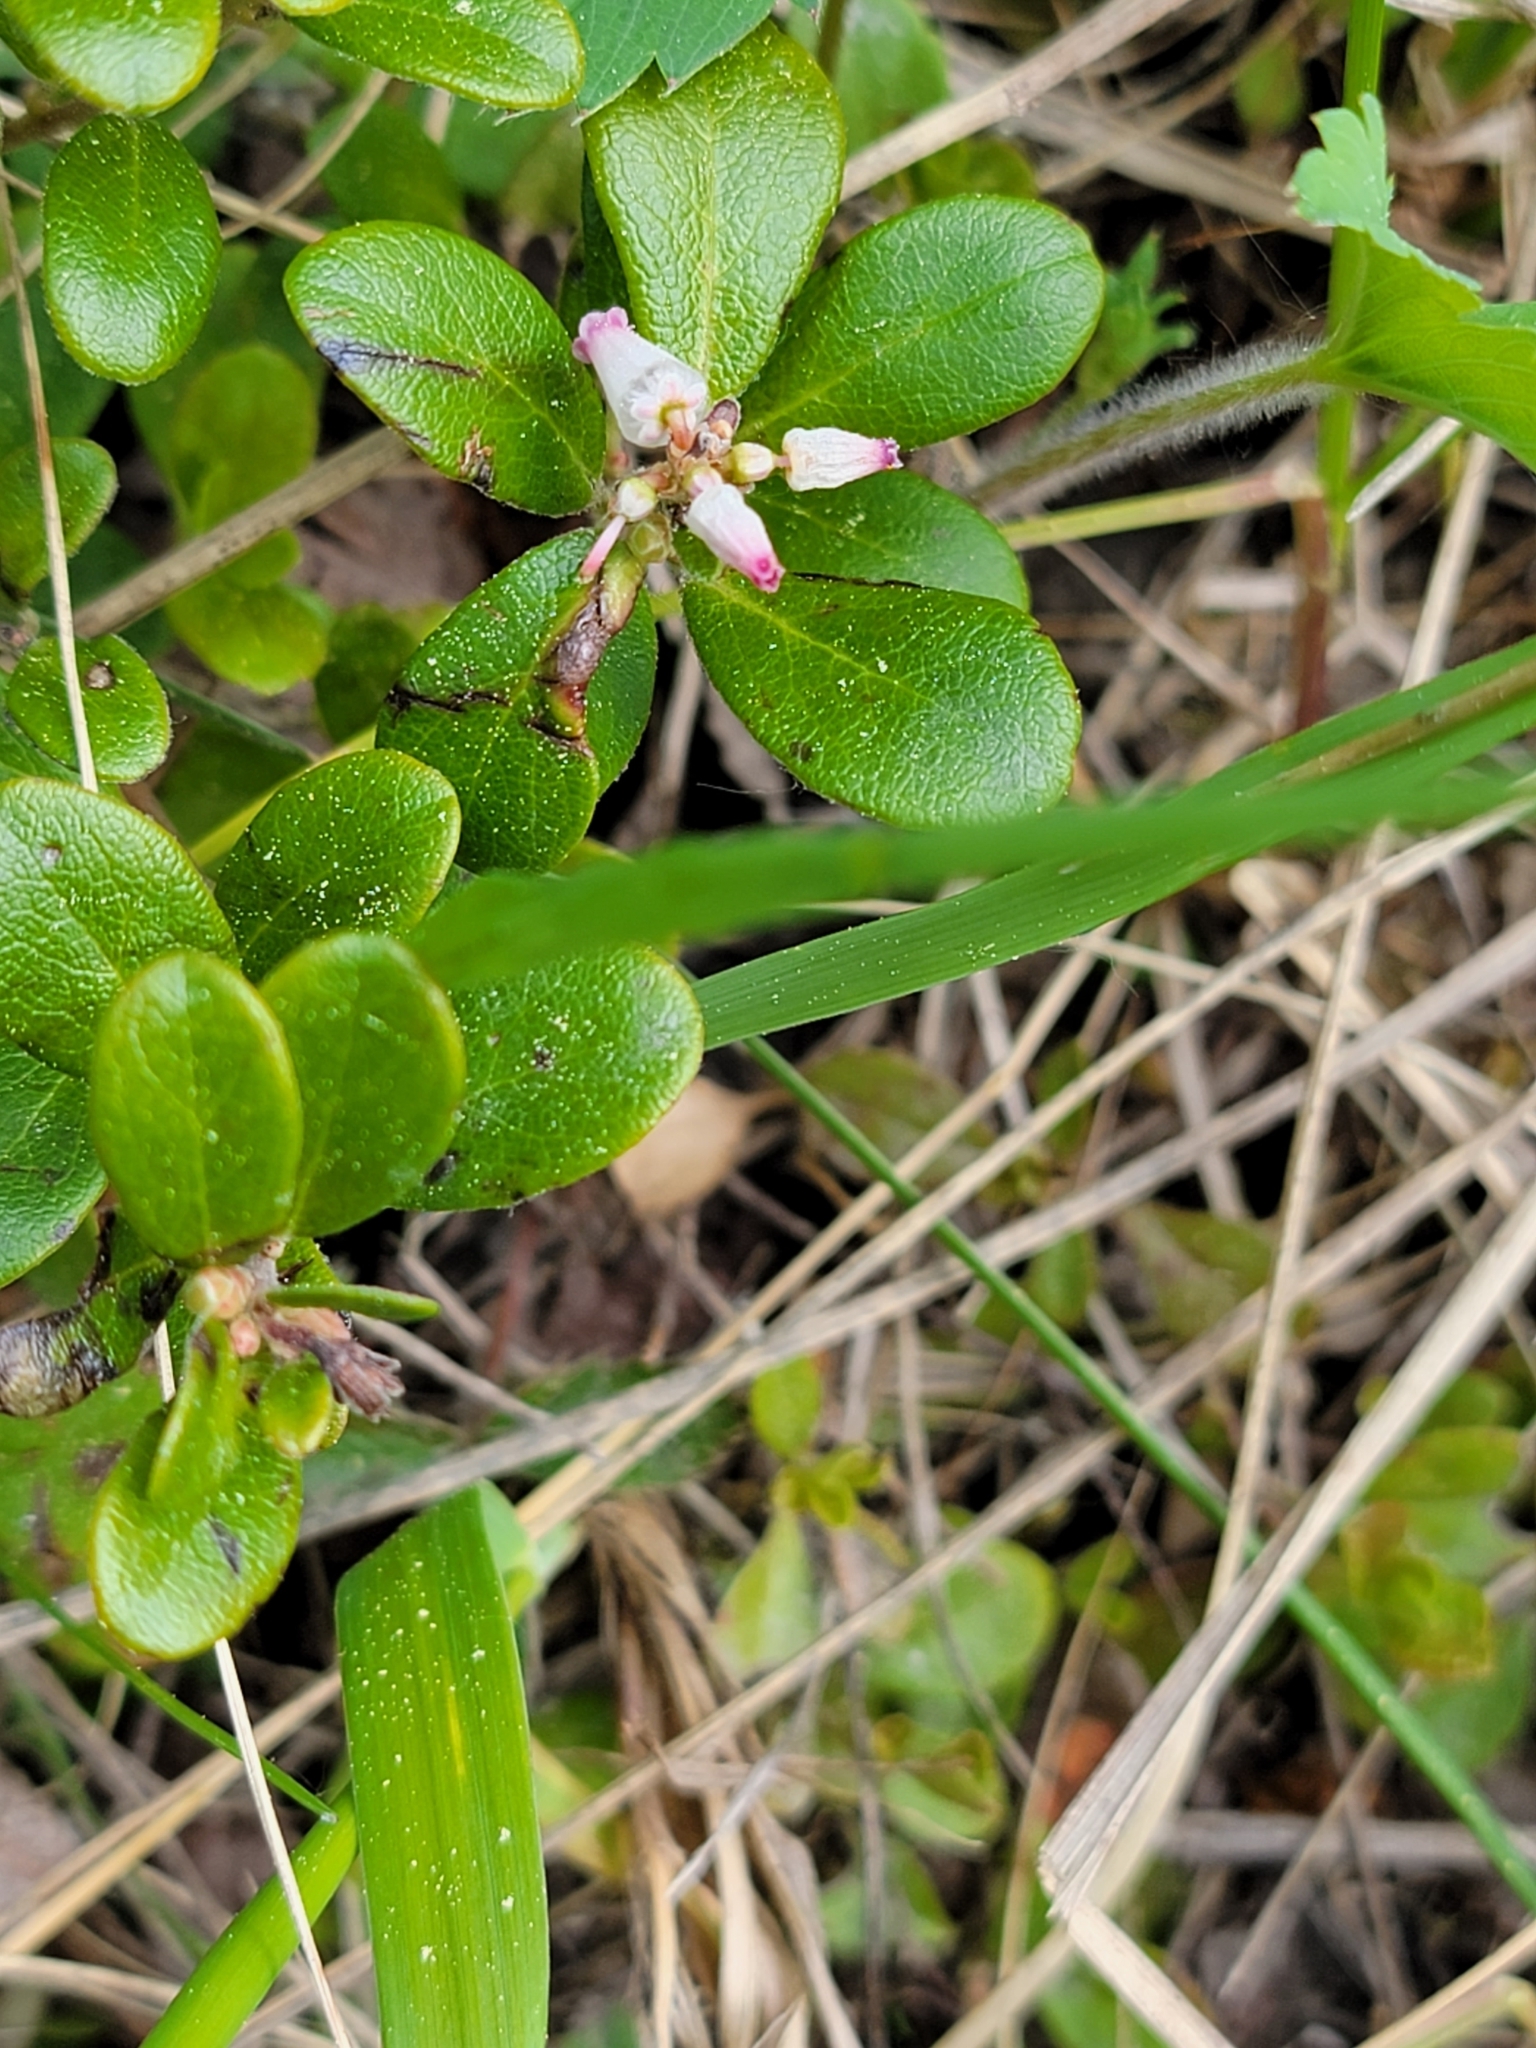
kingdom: Plantae
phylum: Tracheophyta
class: Magnoliopsida
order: Ericales
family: Ericaceae
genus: Arctostaphylos
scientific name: Arctostaphylos uva-ursi
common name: Bearberry
